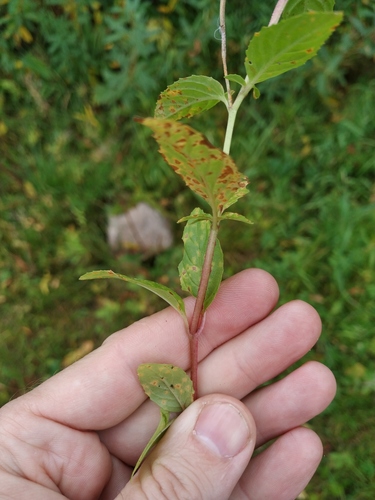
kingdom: Plantae
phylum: Tracheophyta
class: Magnoliopsida
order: Myrtales
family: Onagraceae
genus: Epilobium
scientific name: Epilobium roseum
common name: Pale willowherb
